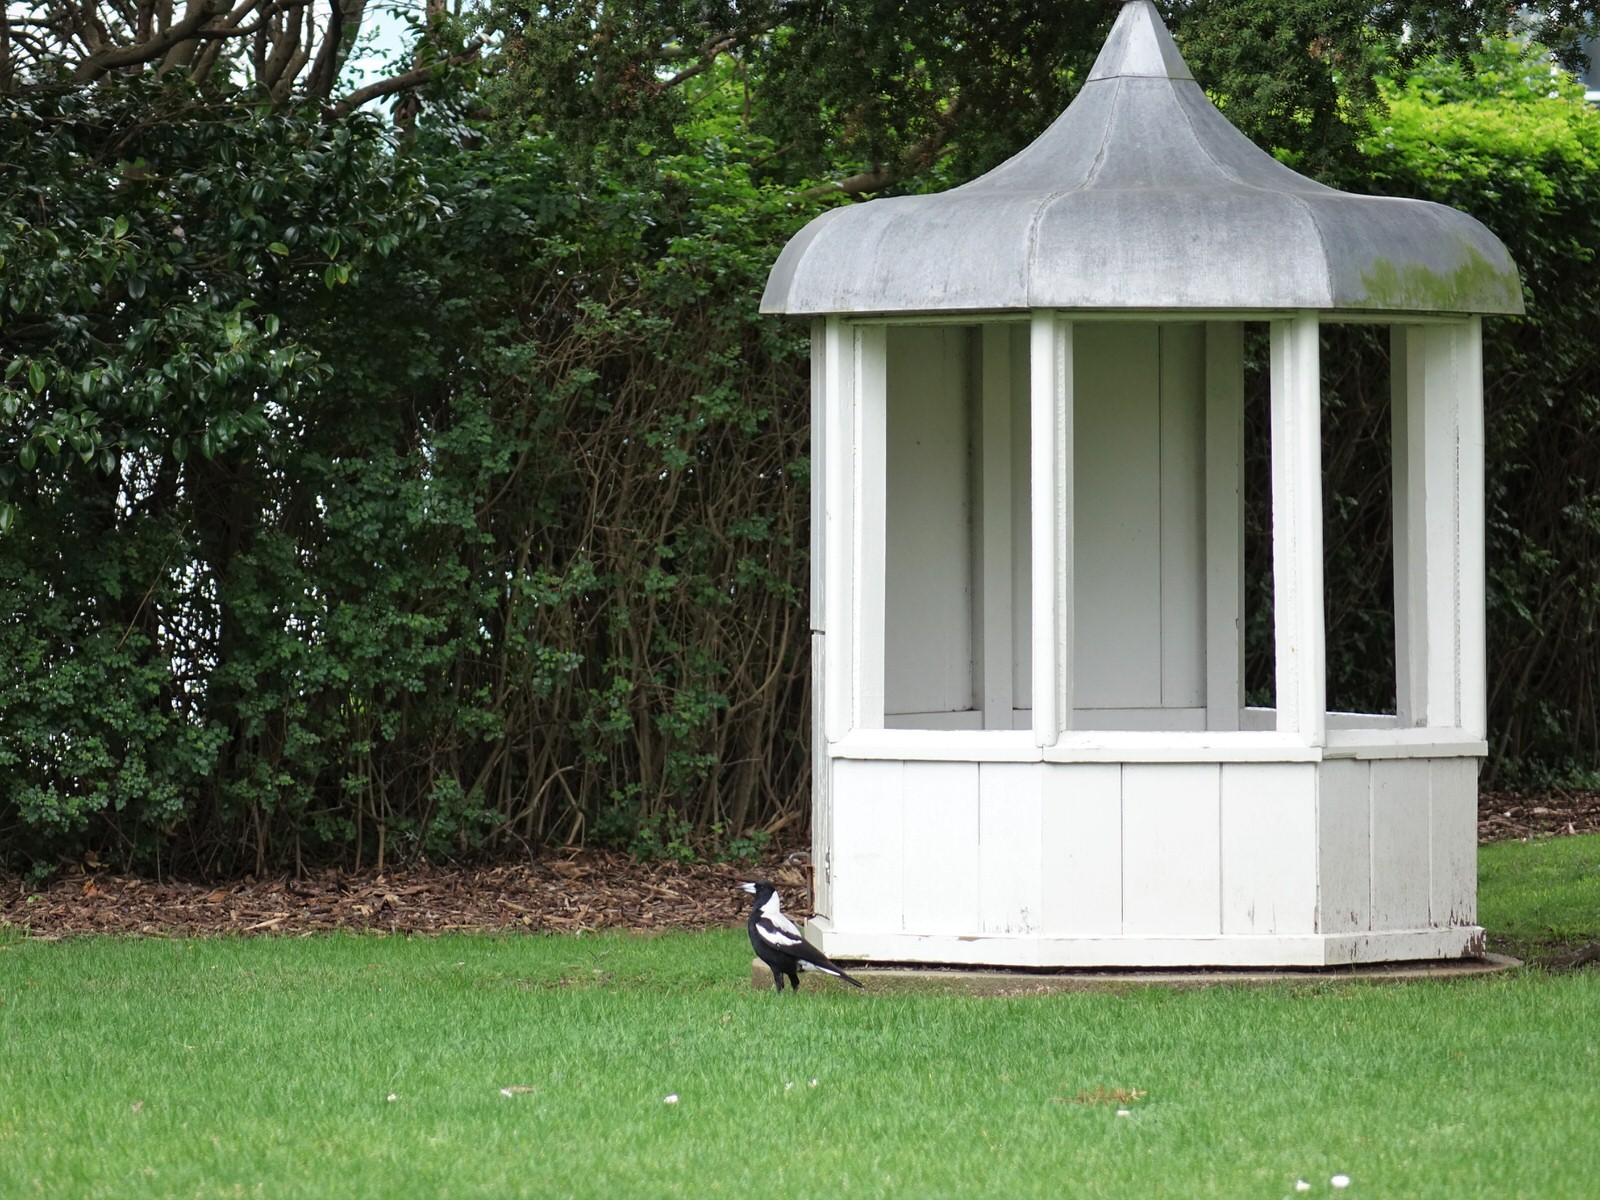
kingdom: Animalia
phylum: Chordata
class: Aves
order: Passeriformes
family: Cracticidae
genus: Gymnorhina
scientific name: Gymnorhina tibicen
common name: Australian magpie
